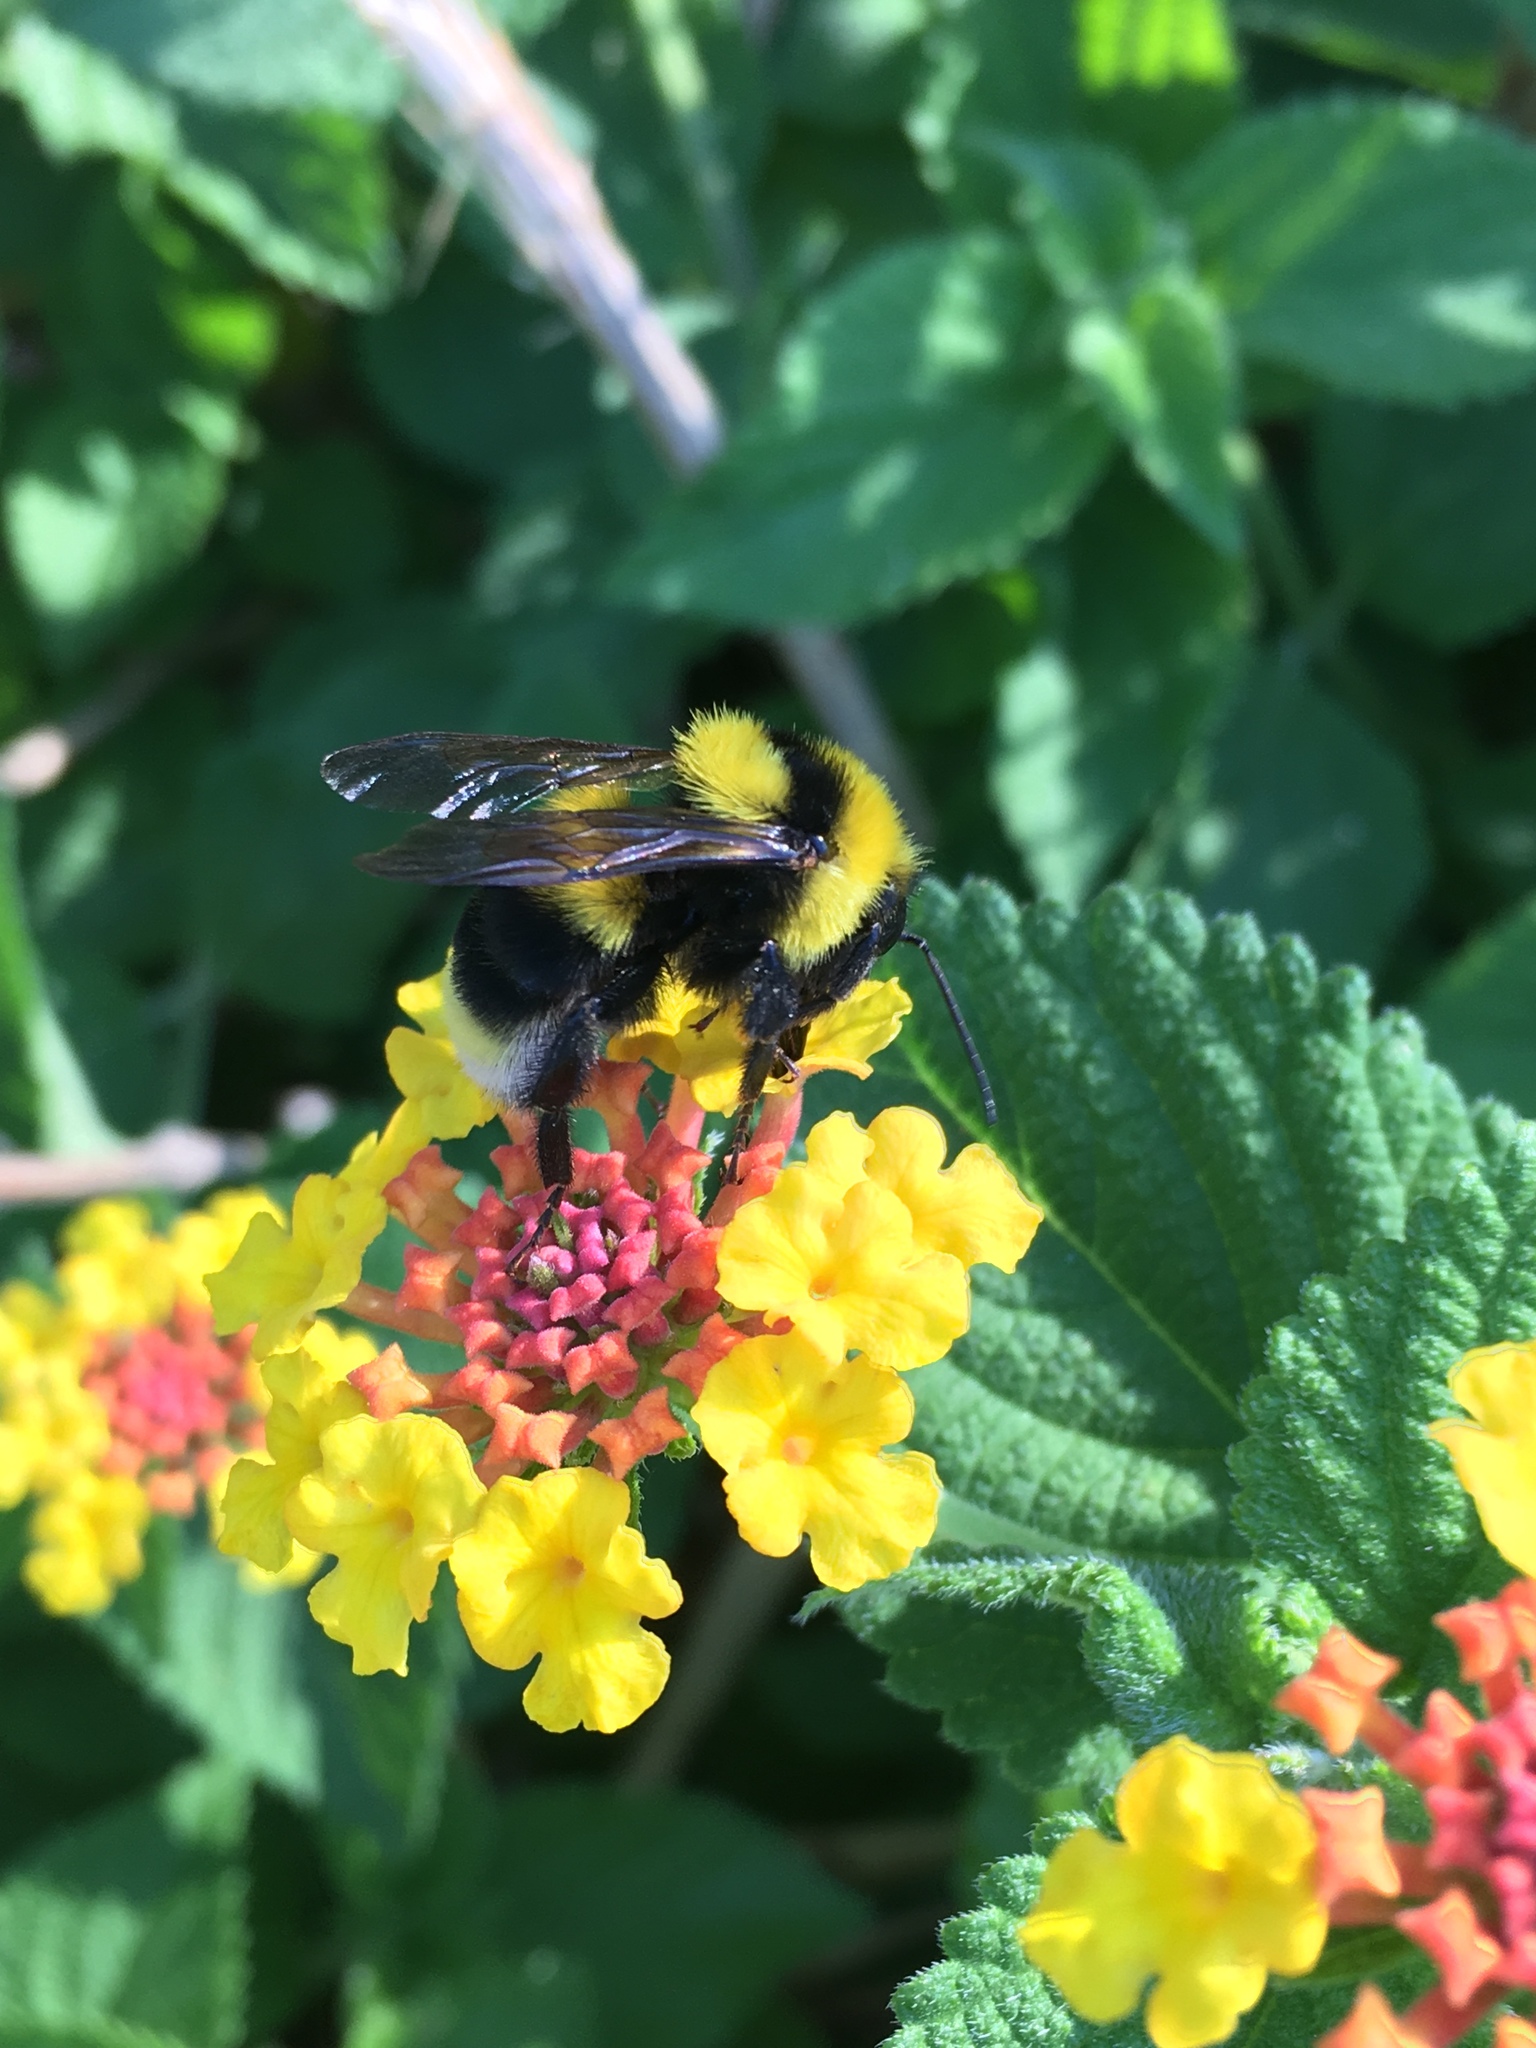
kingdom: Animalia
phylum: Arthropoda
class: Insecta
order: Hymenoptera
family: Apidae
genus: Bombus
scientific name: Bombus argillaceus
